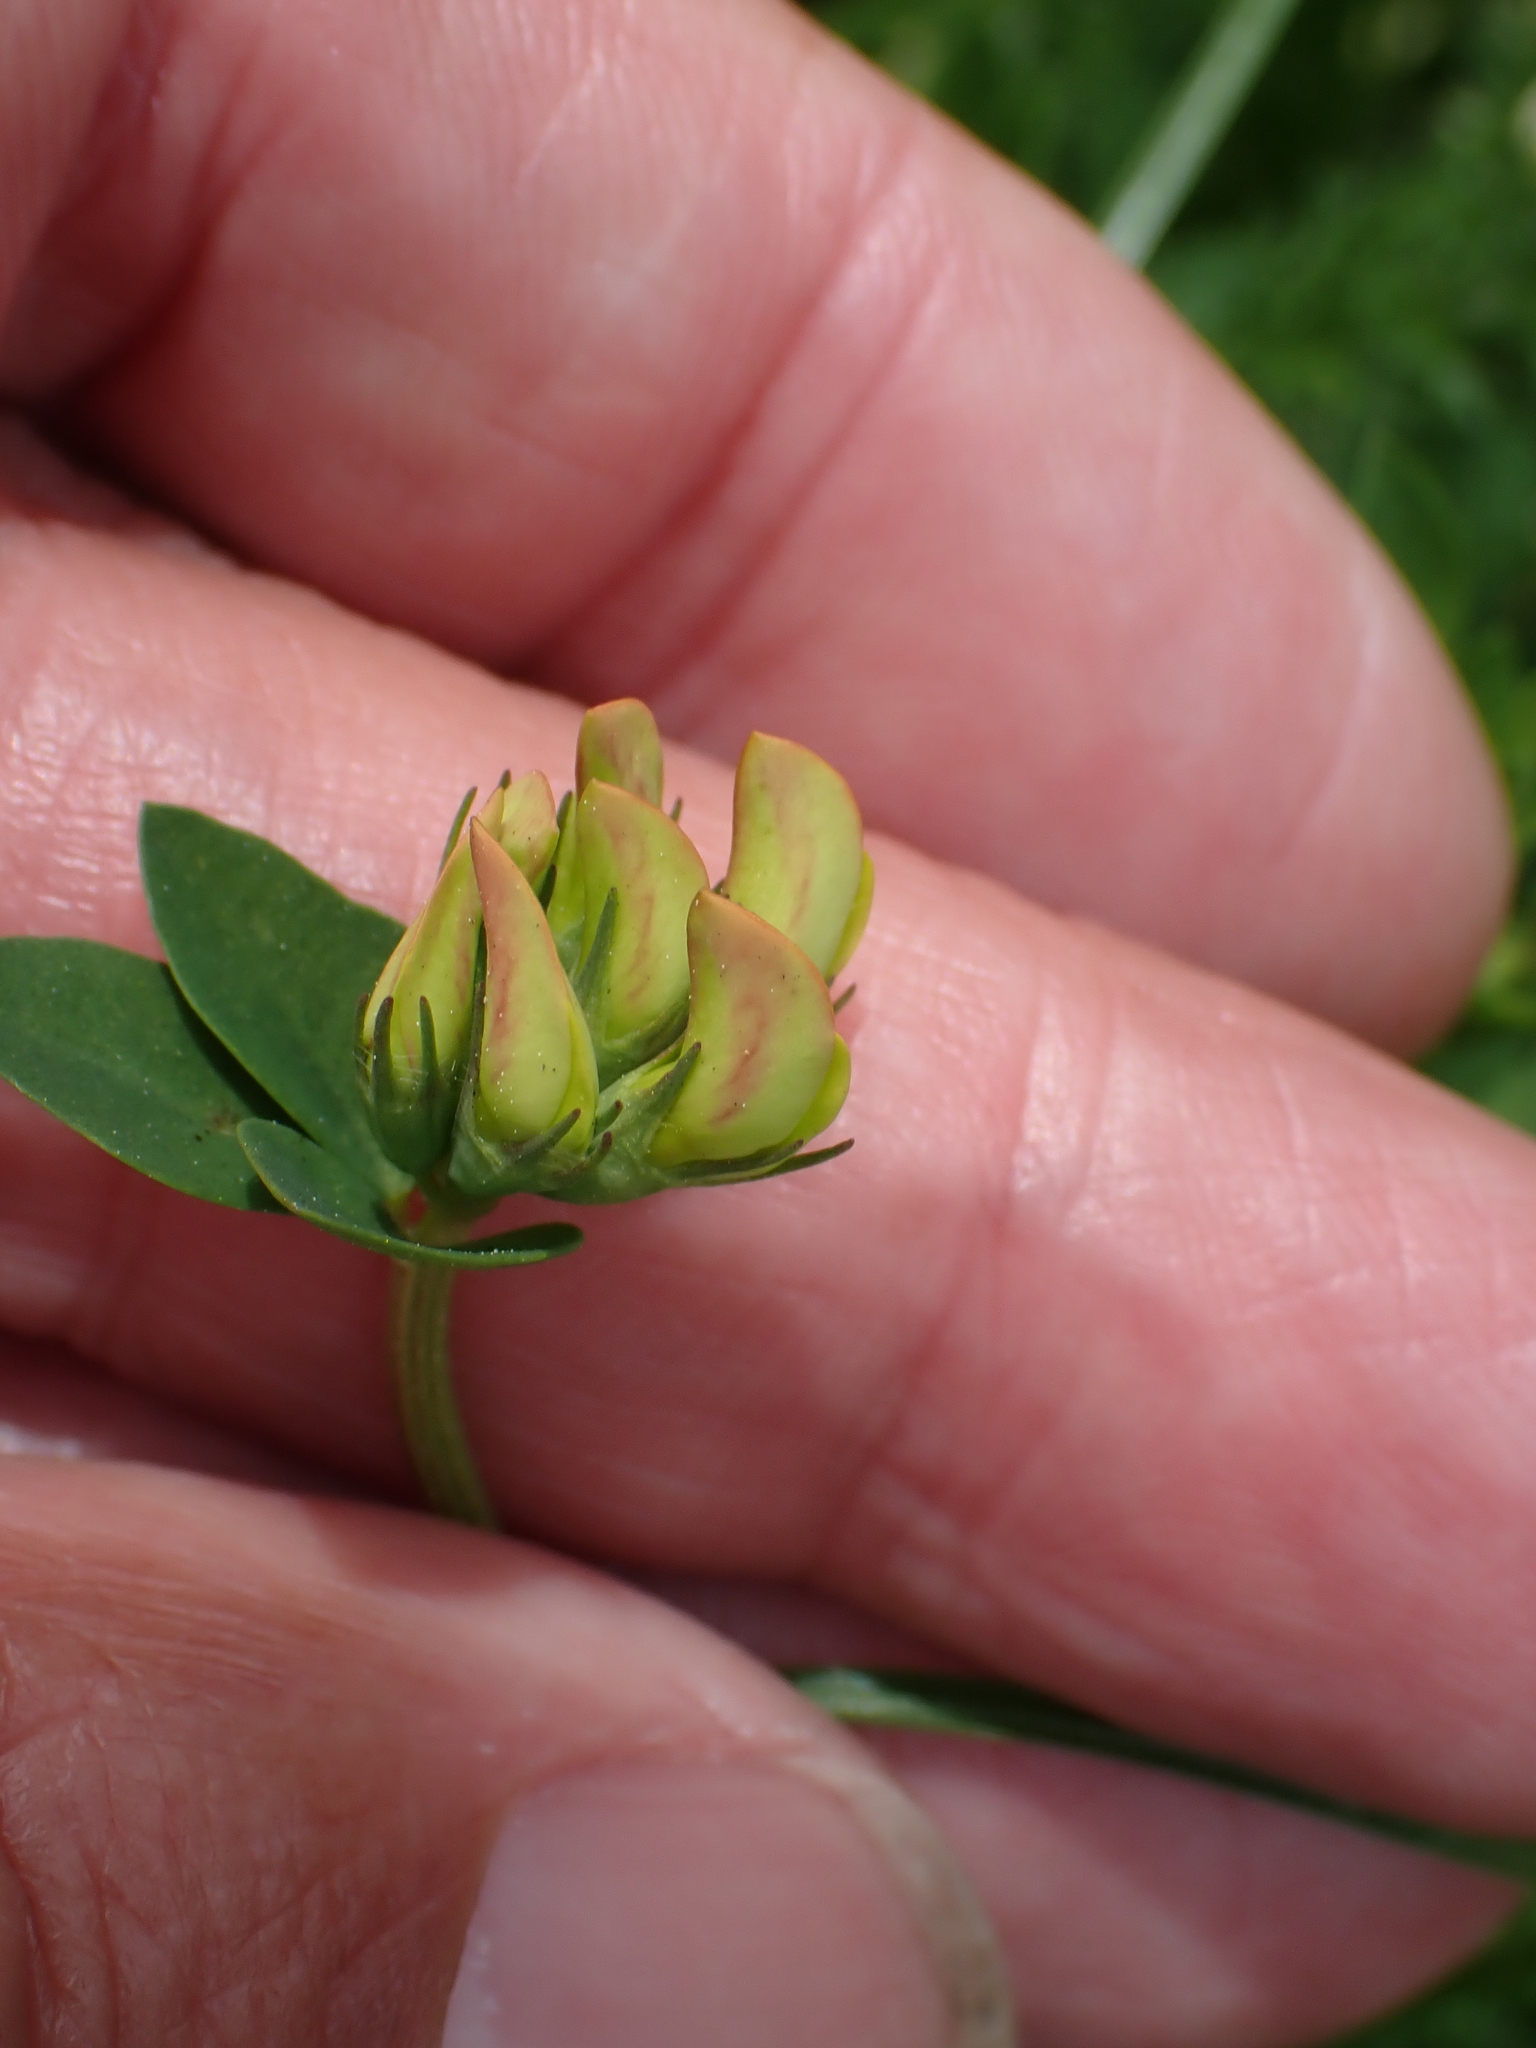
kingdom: Plantae
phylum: Tracheophyta
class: Magnoliopsida
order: Fabales
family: Fabaceae
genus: Lotus
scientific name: Lotus corniculatus
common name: Common bird's-foot-trefoil
